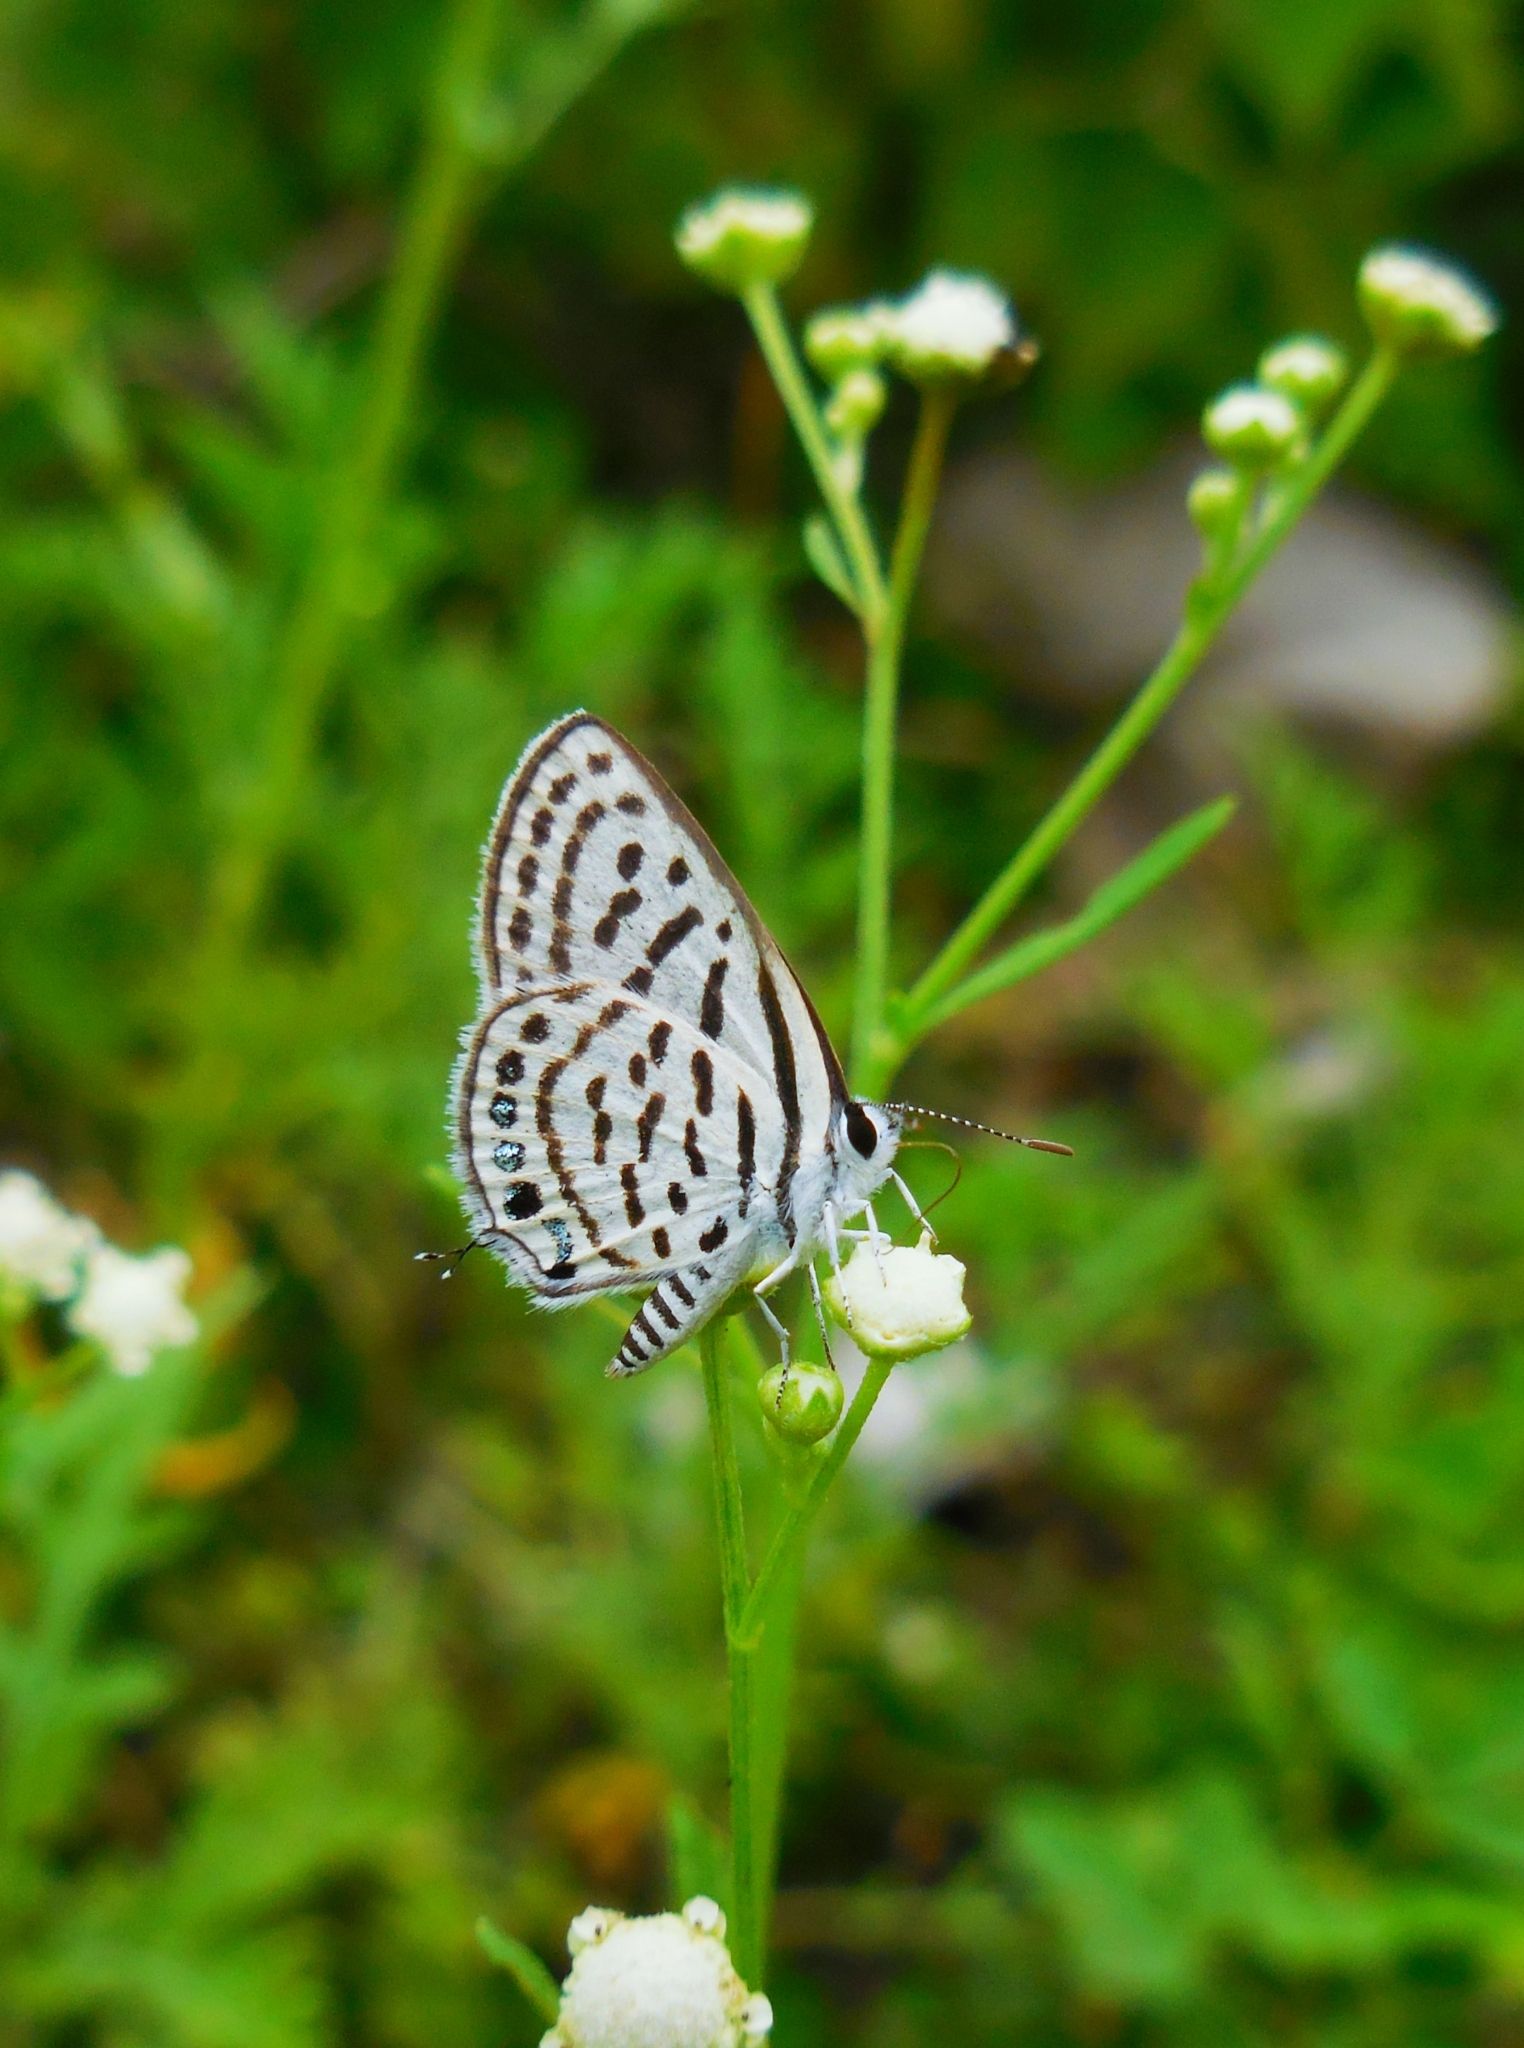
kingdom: Animalia
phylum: Arthropoda
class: Insecta
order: Lepidoptera
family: Lycaenidae
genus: Tarucus
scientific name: Tarucus
